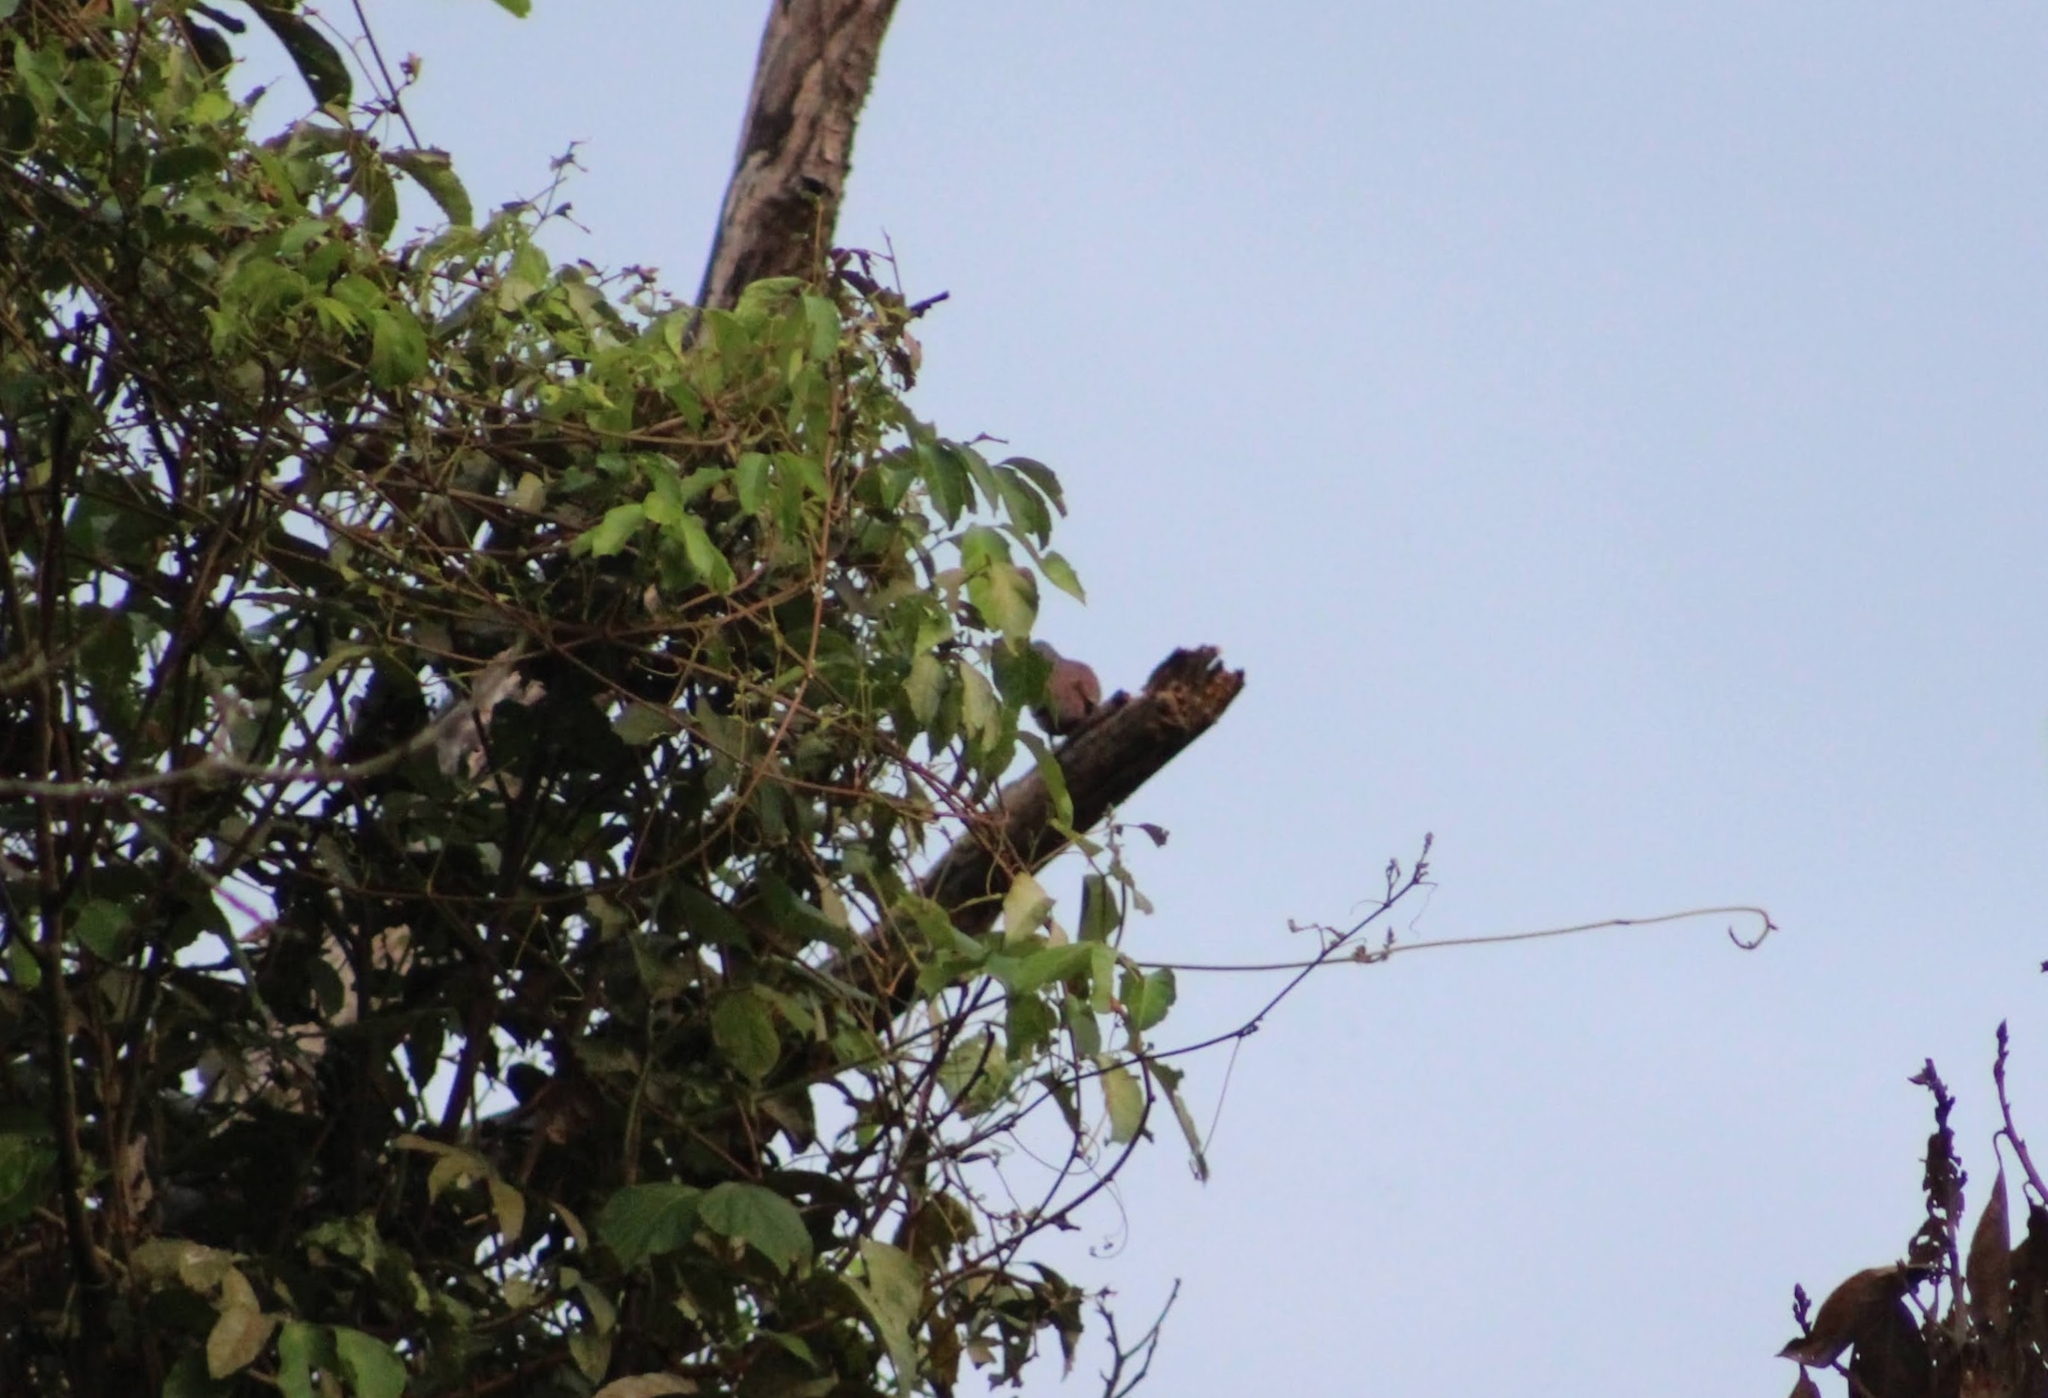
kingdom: Animalia
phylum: Chordata
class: Aves
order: Columbiformes
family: Columbidae
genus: Columbina
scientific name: Columbina talpacoti
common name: Ruddy ground dove
